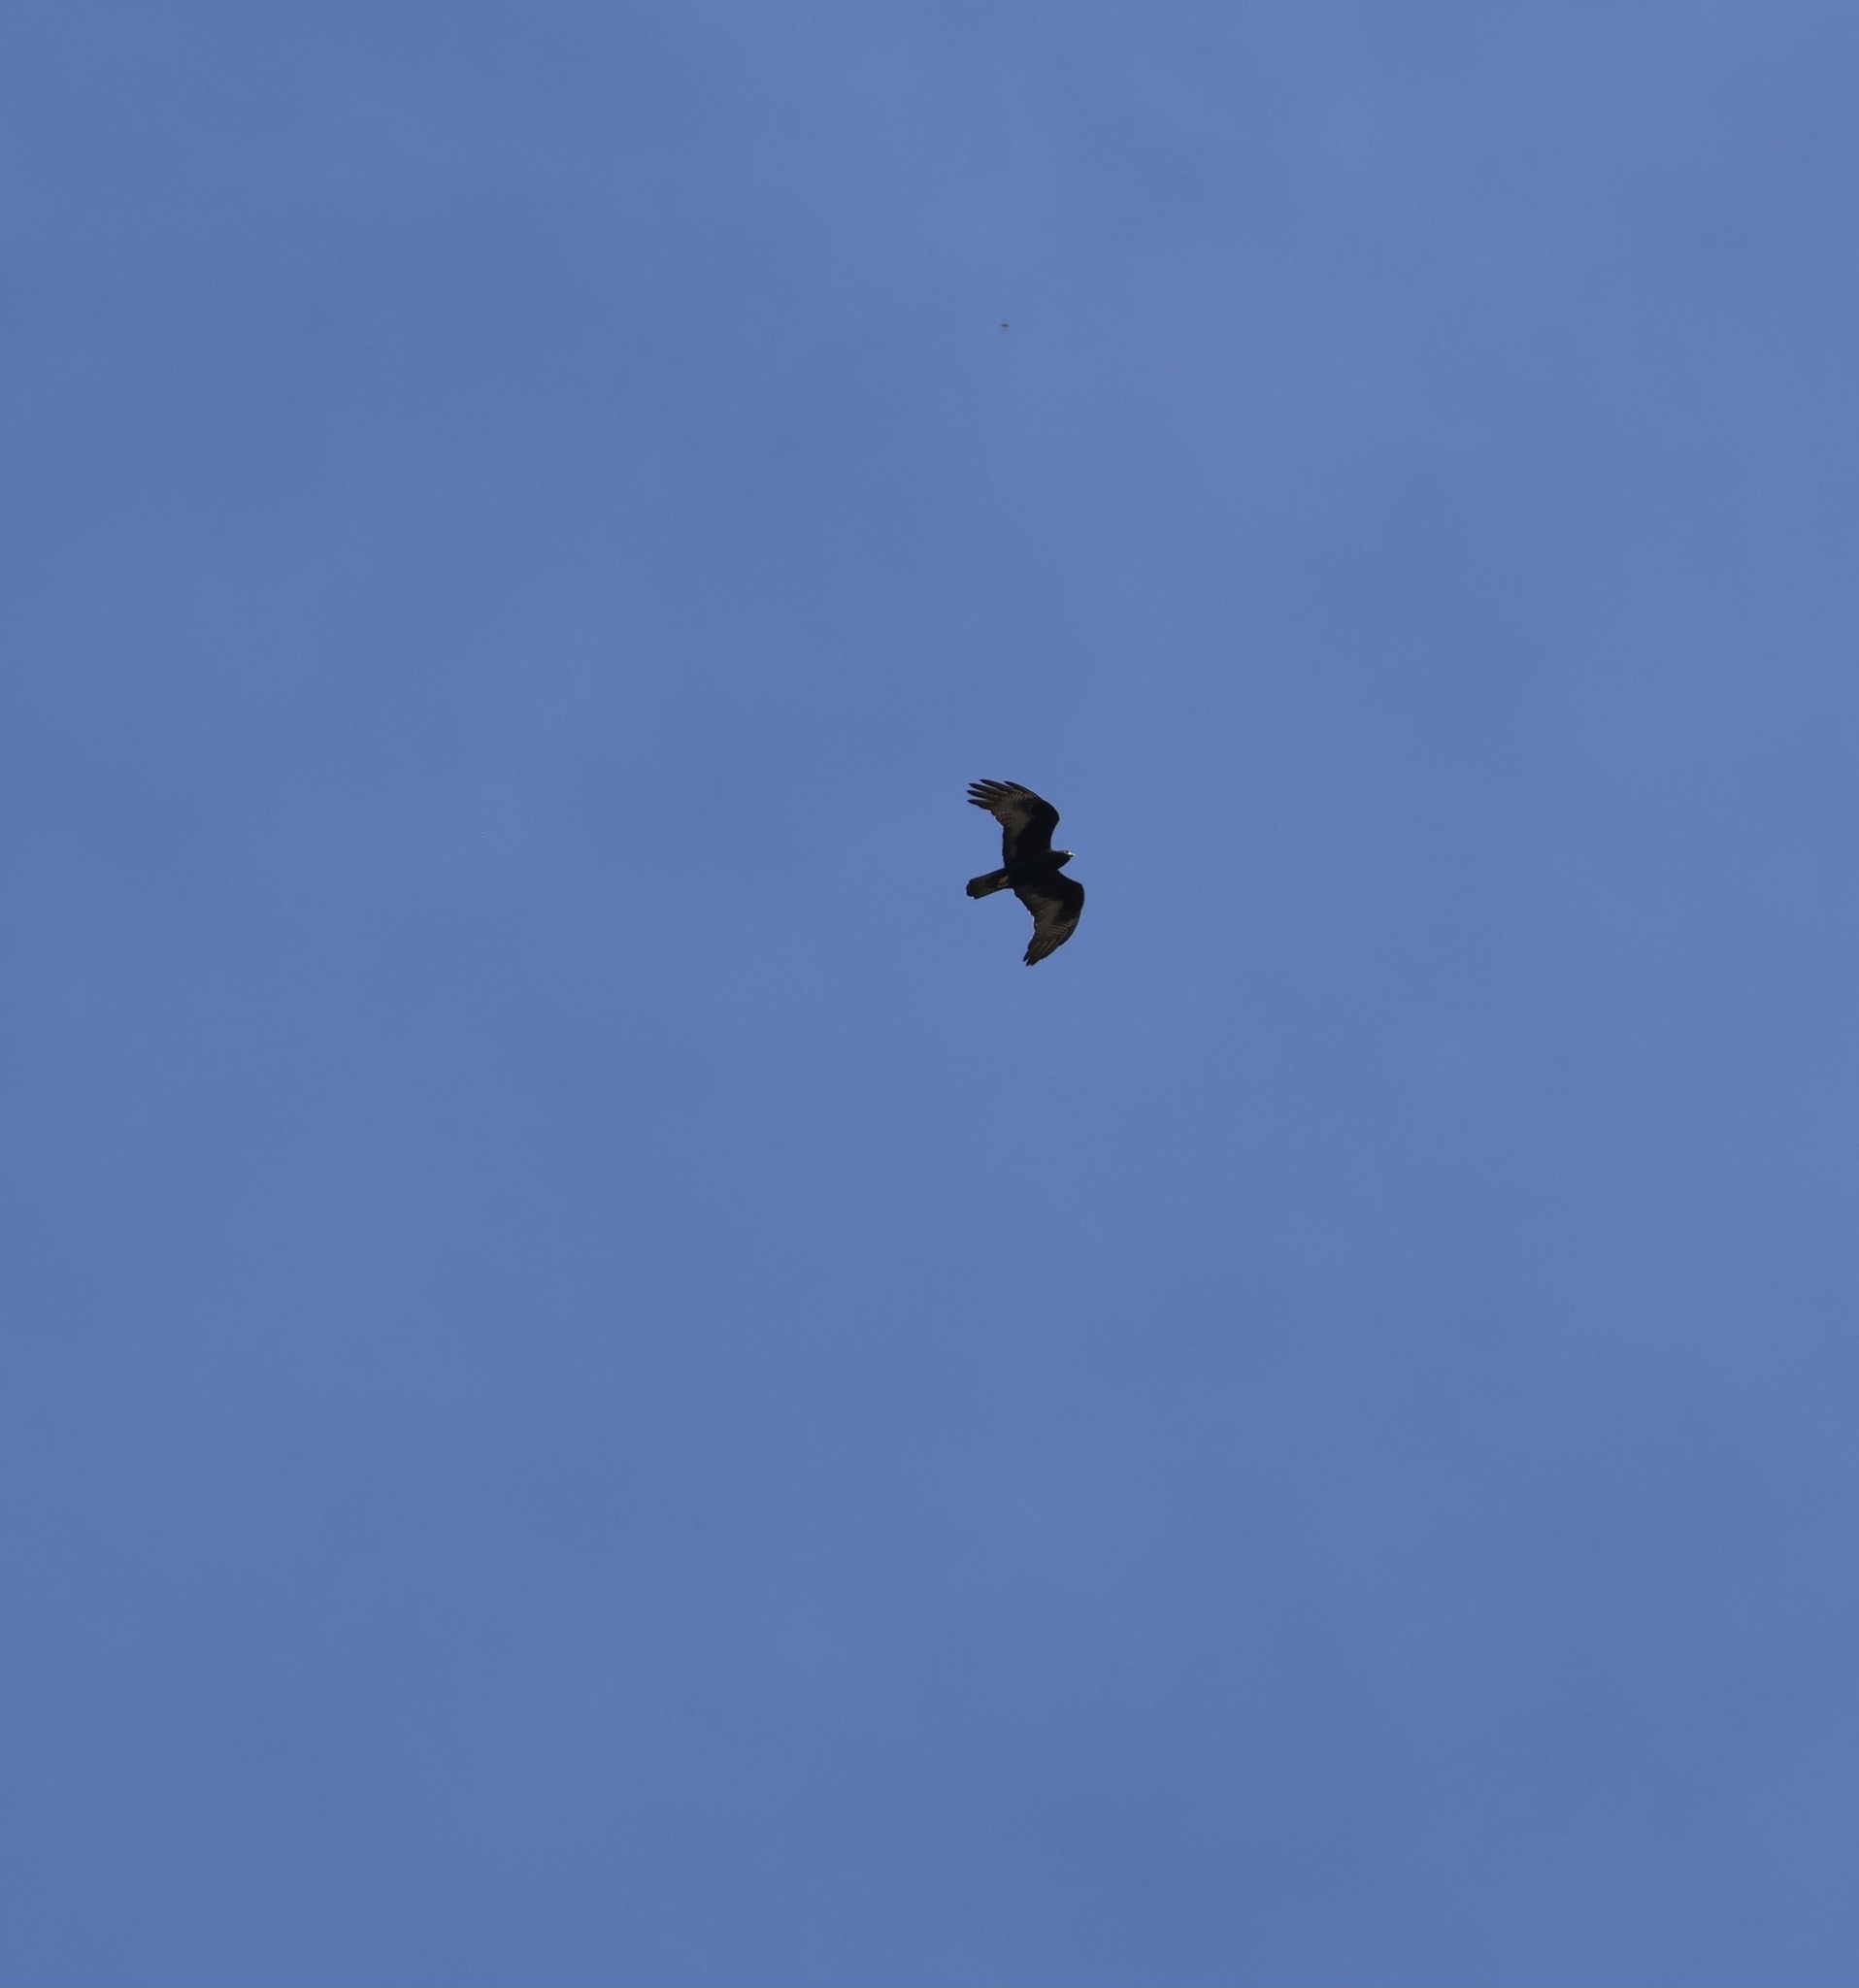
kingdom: Animalia
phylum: Chordata
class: Aves
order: Accipitriformes
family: Accipitridae
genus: Buteo
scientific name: Buteo albonotatus
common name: Zone-tailed hawk
